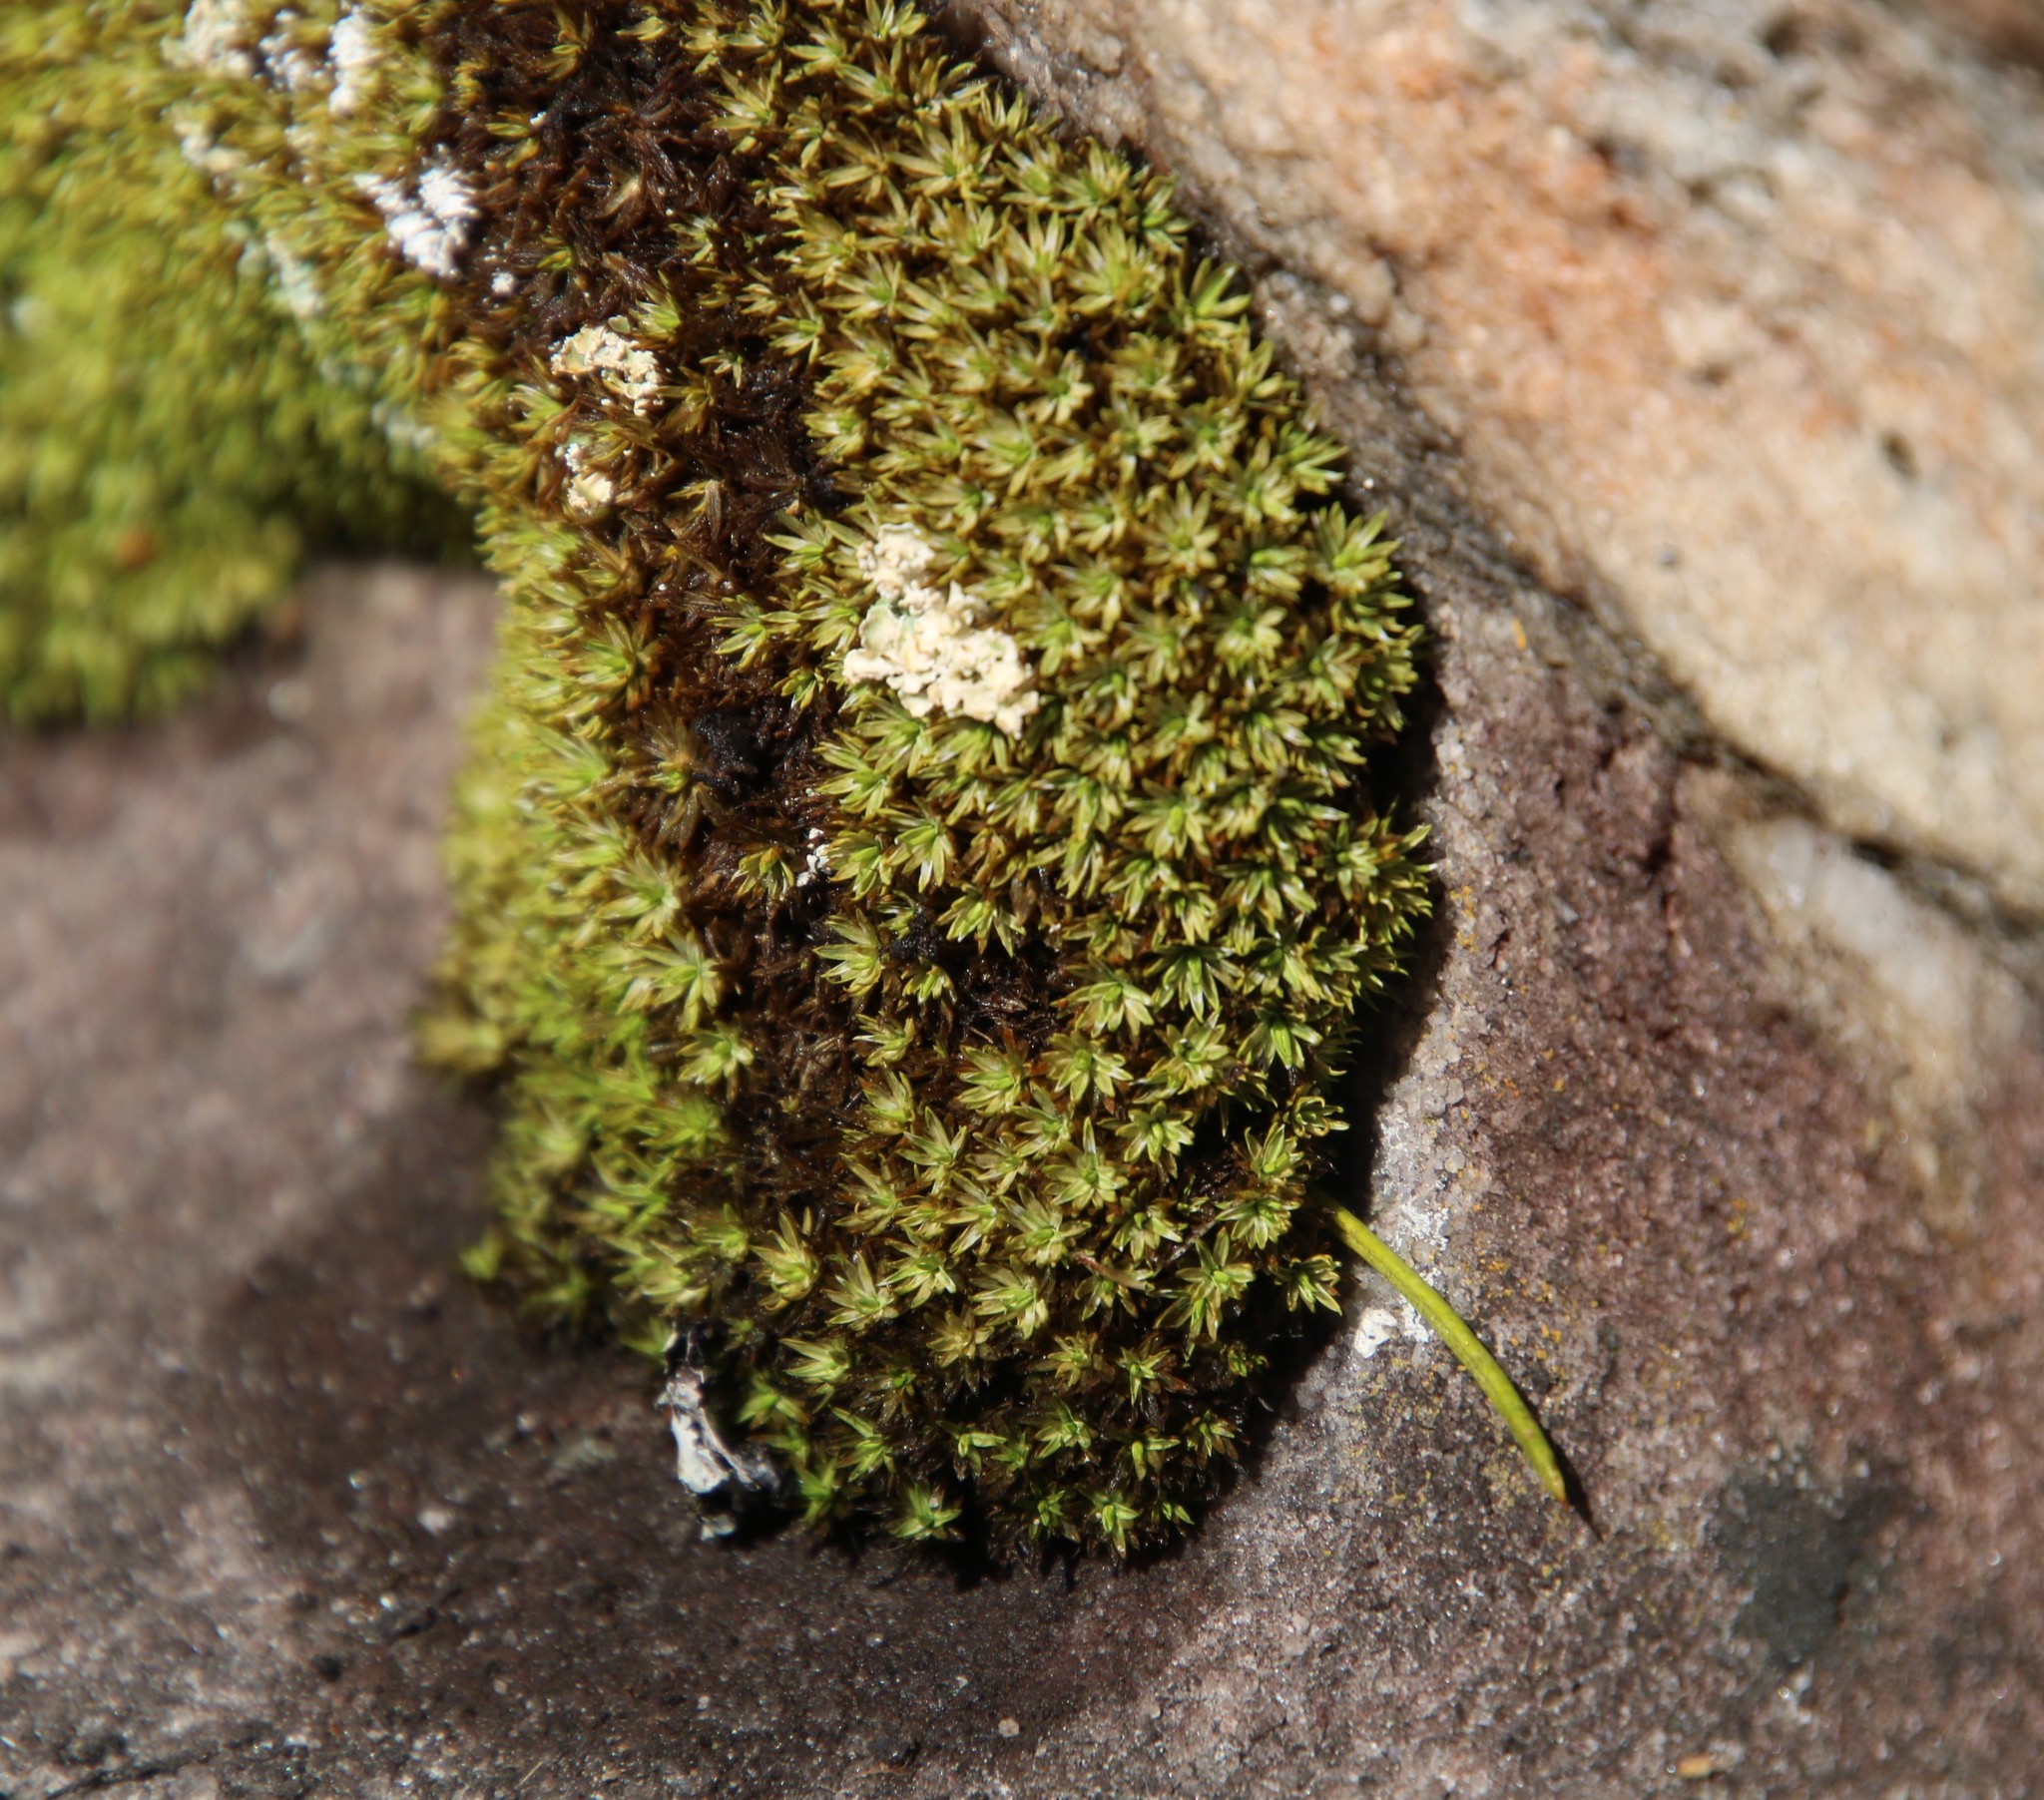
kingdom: Plantae
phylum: Bryophyta
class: Bryopsida
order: Dicranales
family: Hypodontiaceae
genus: Hypodontium
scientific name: Hypodontium pomiforme
